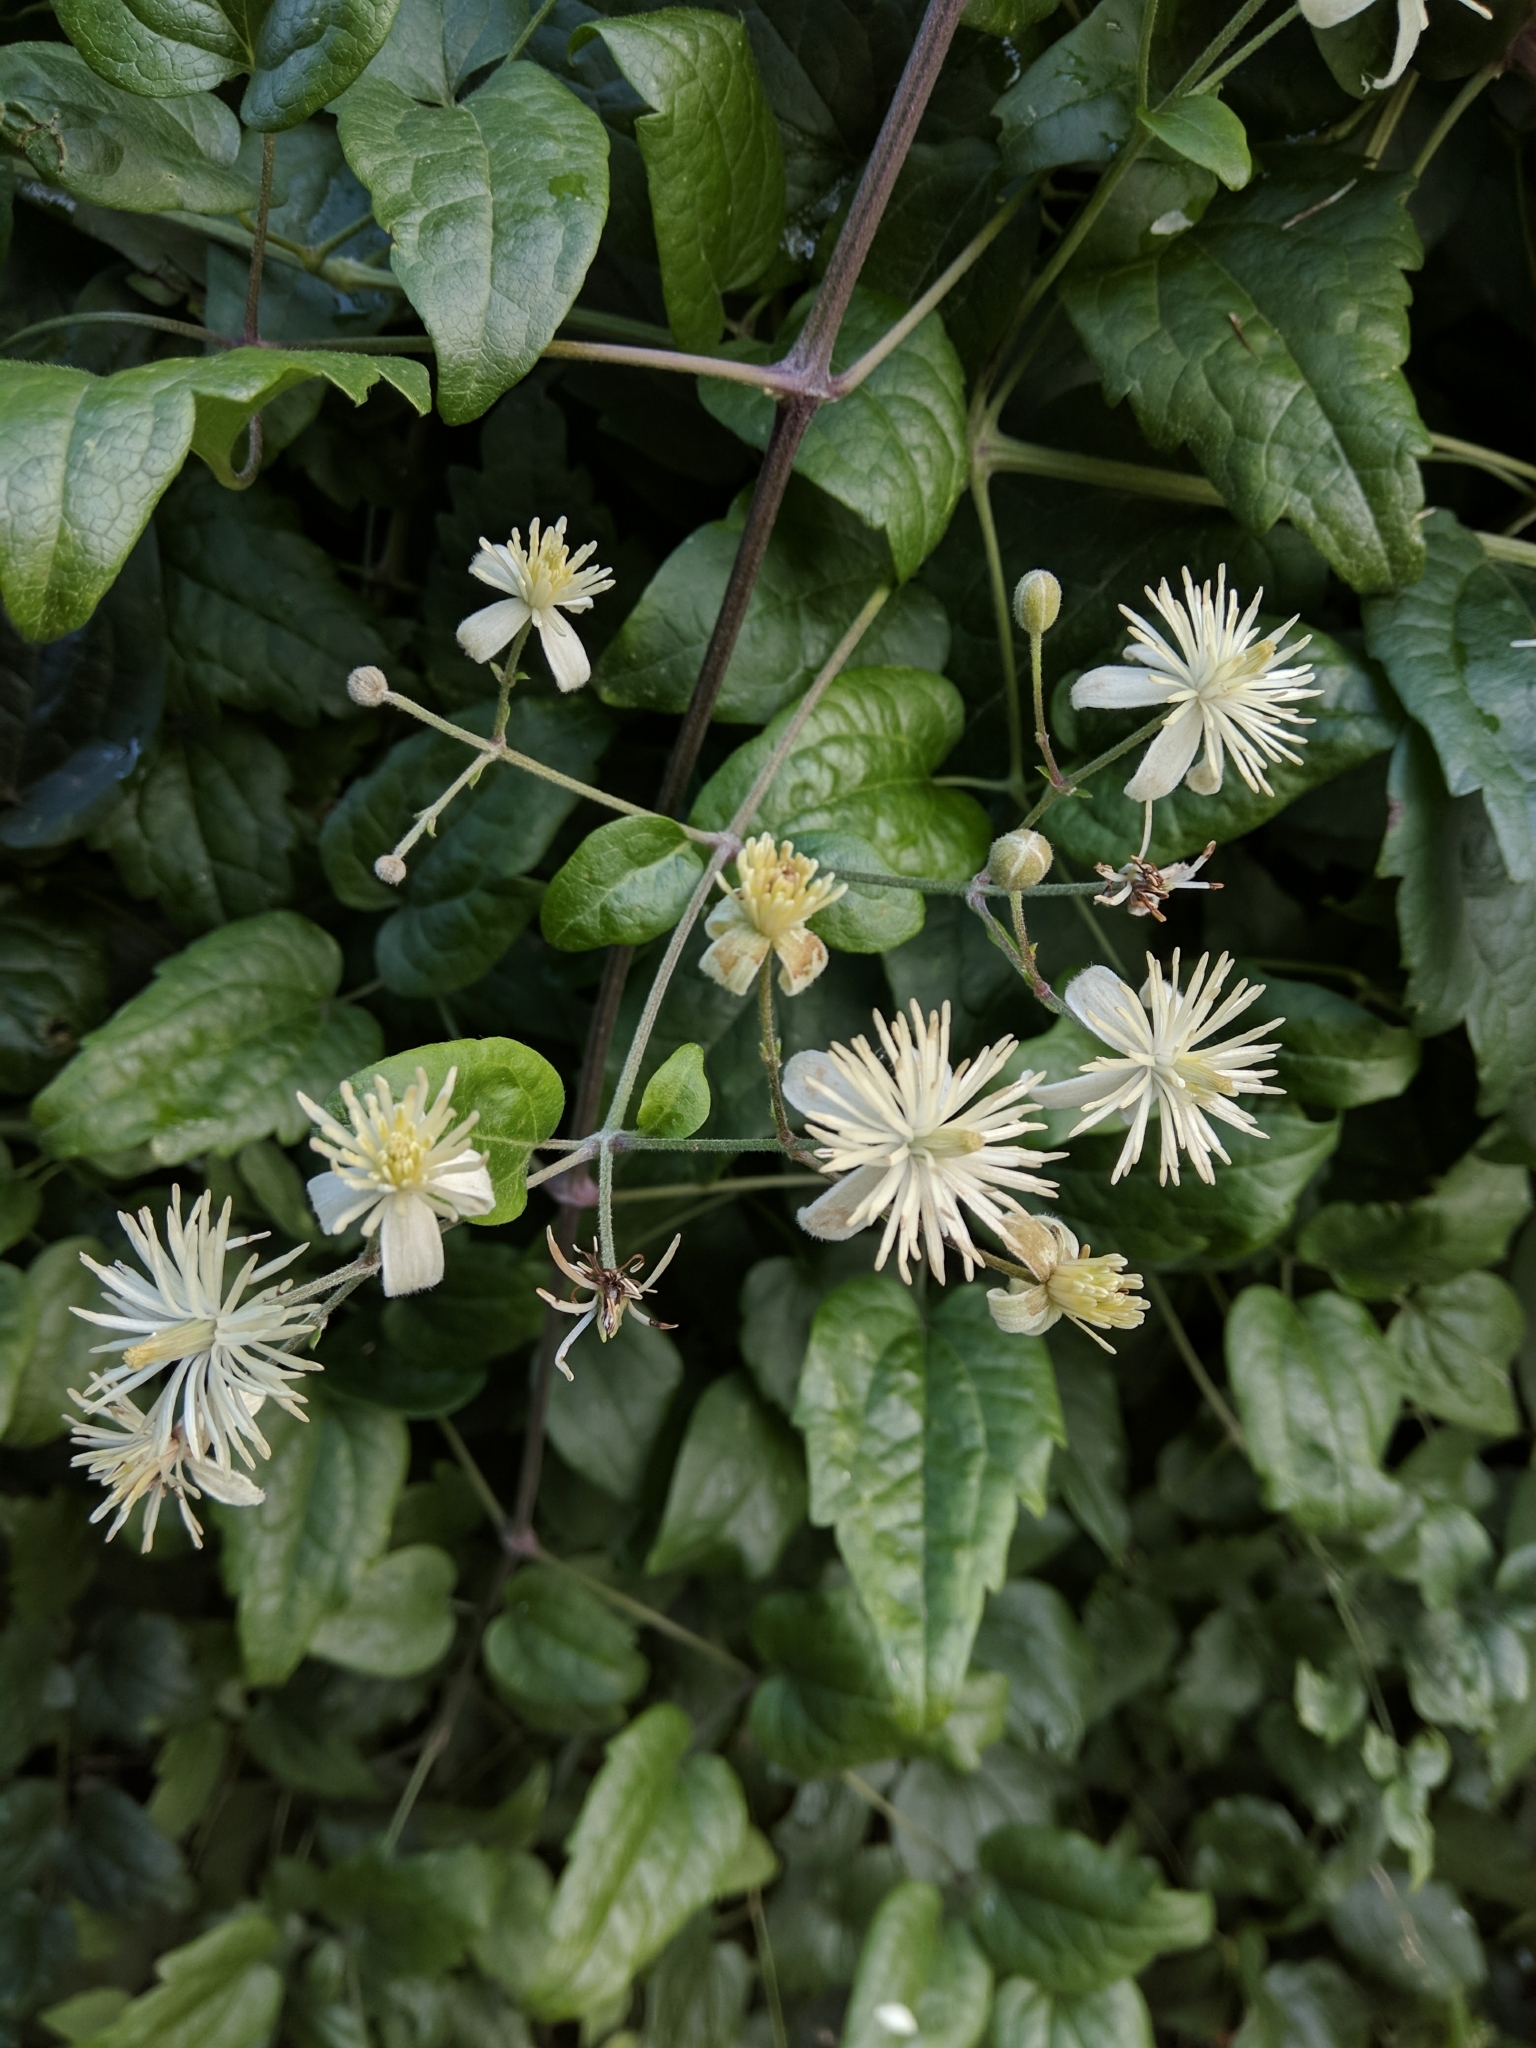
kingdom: Plantae
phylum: Tracheophyta
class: Magnoliopsida
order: Ranunculales
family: Ranunculaceae
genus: Clematis
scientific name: Clematis vitalba
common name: Evergreen clematis
